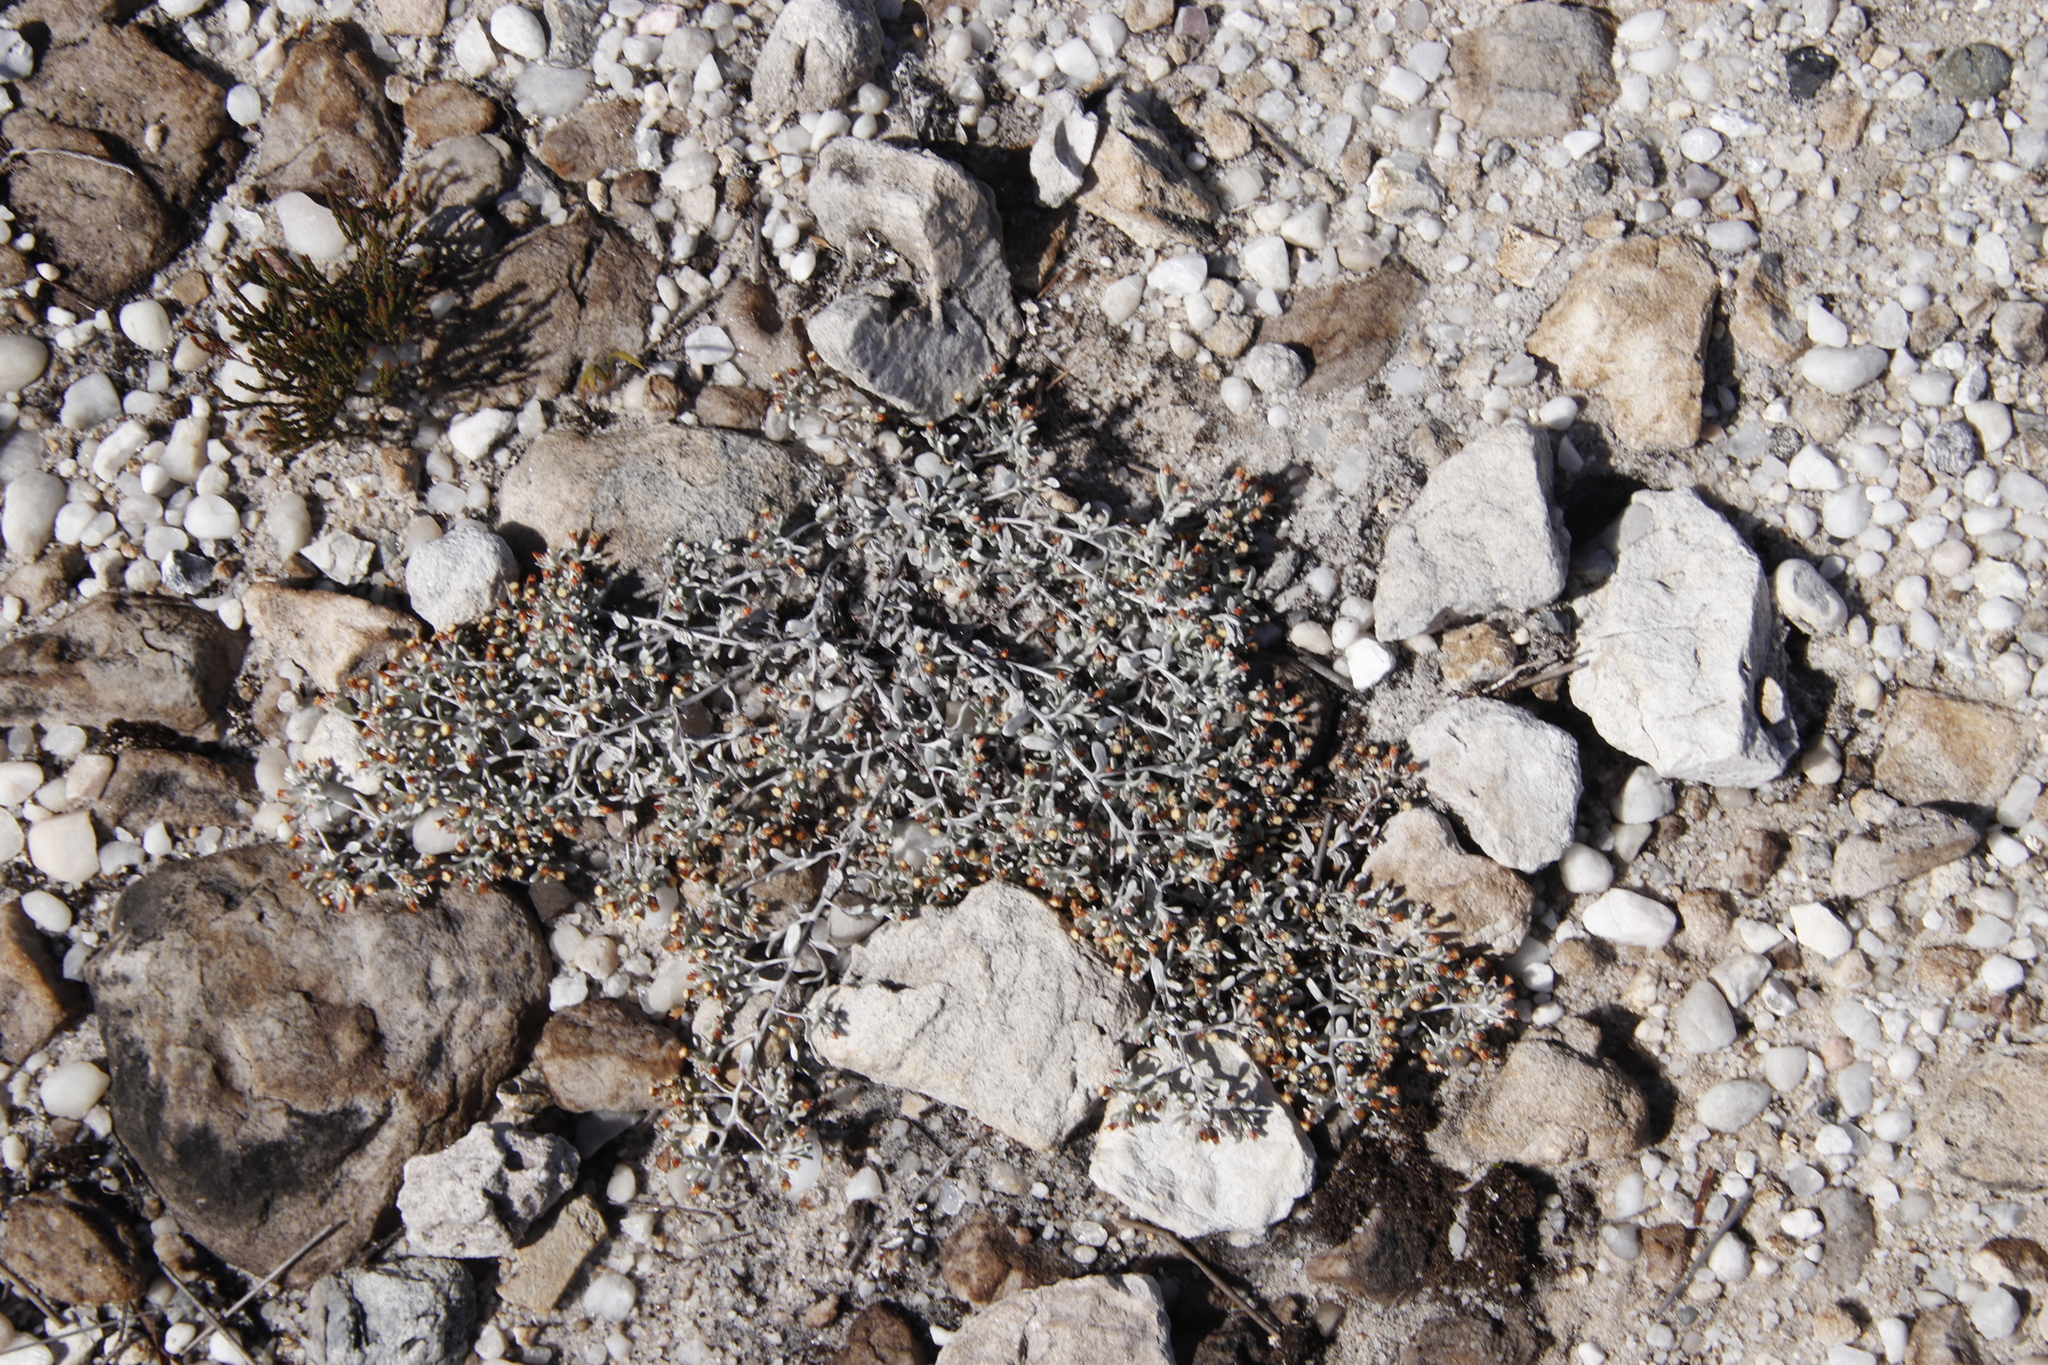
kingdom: Plantae
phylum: Tracheophyta
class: Magnoliopsida
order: Asterales
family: Asteraceae
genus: Helichrysum
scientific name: Helichrysum tinctum
